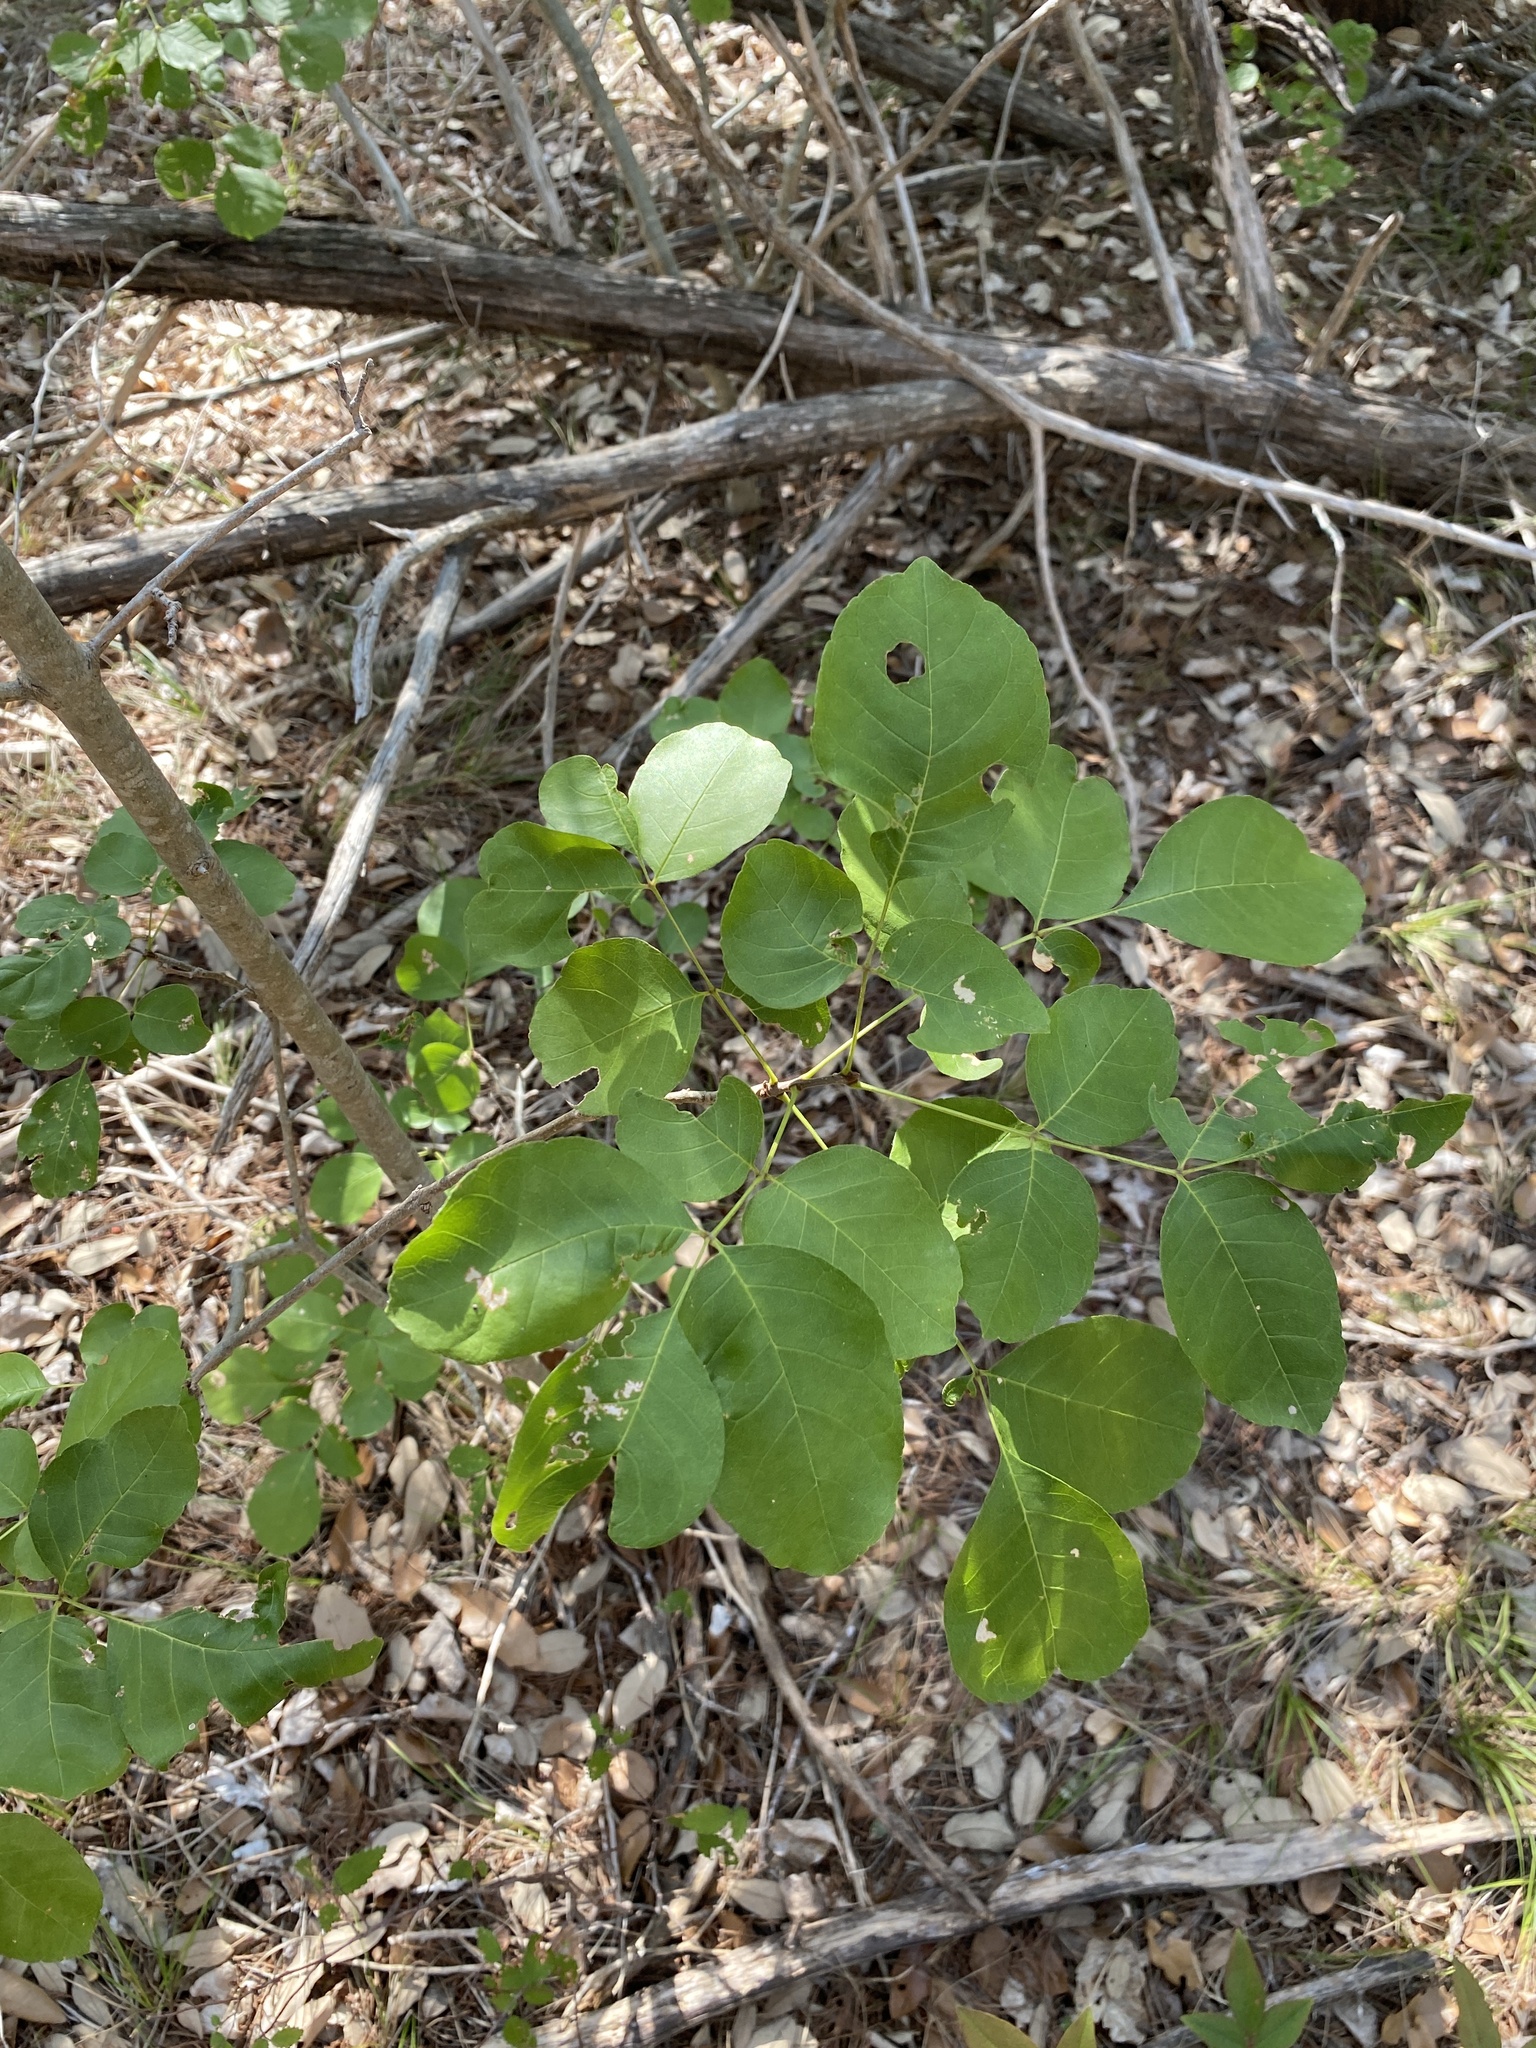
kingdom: Plantae
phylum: Tracheophyta
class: Magnoliopsida
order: Lamiales
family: Oleaceae
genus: Fraxinus
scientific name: Fraxinus albicans
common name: Texas ash
